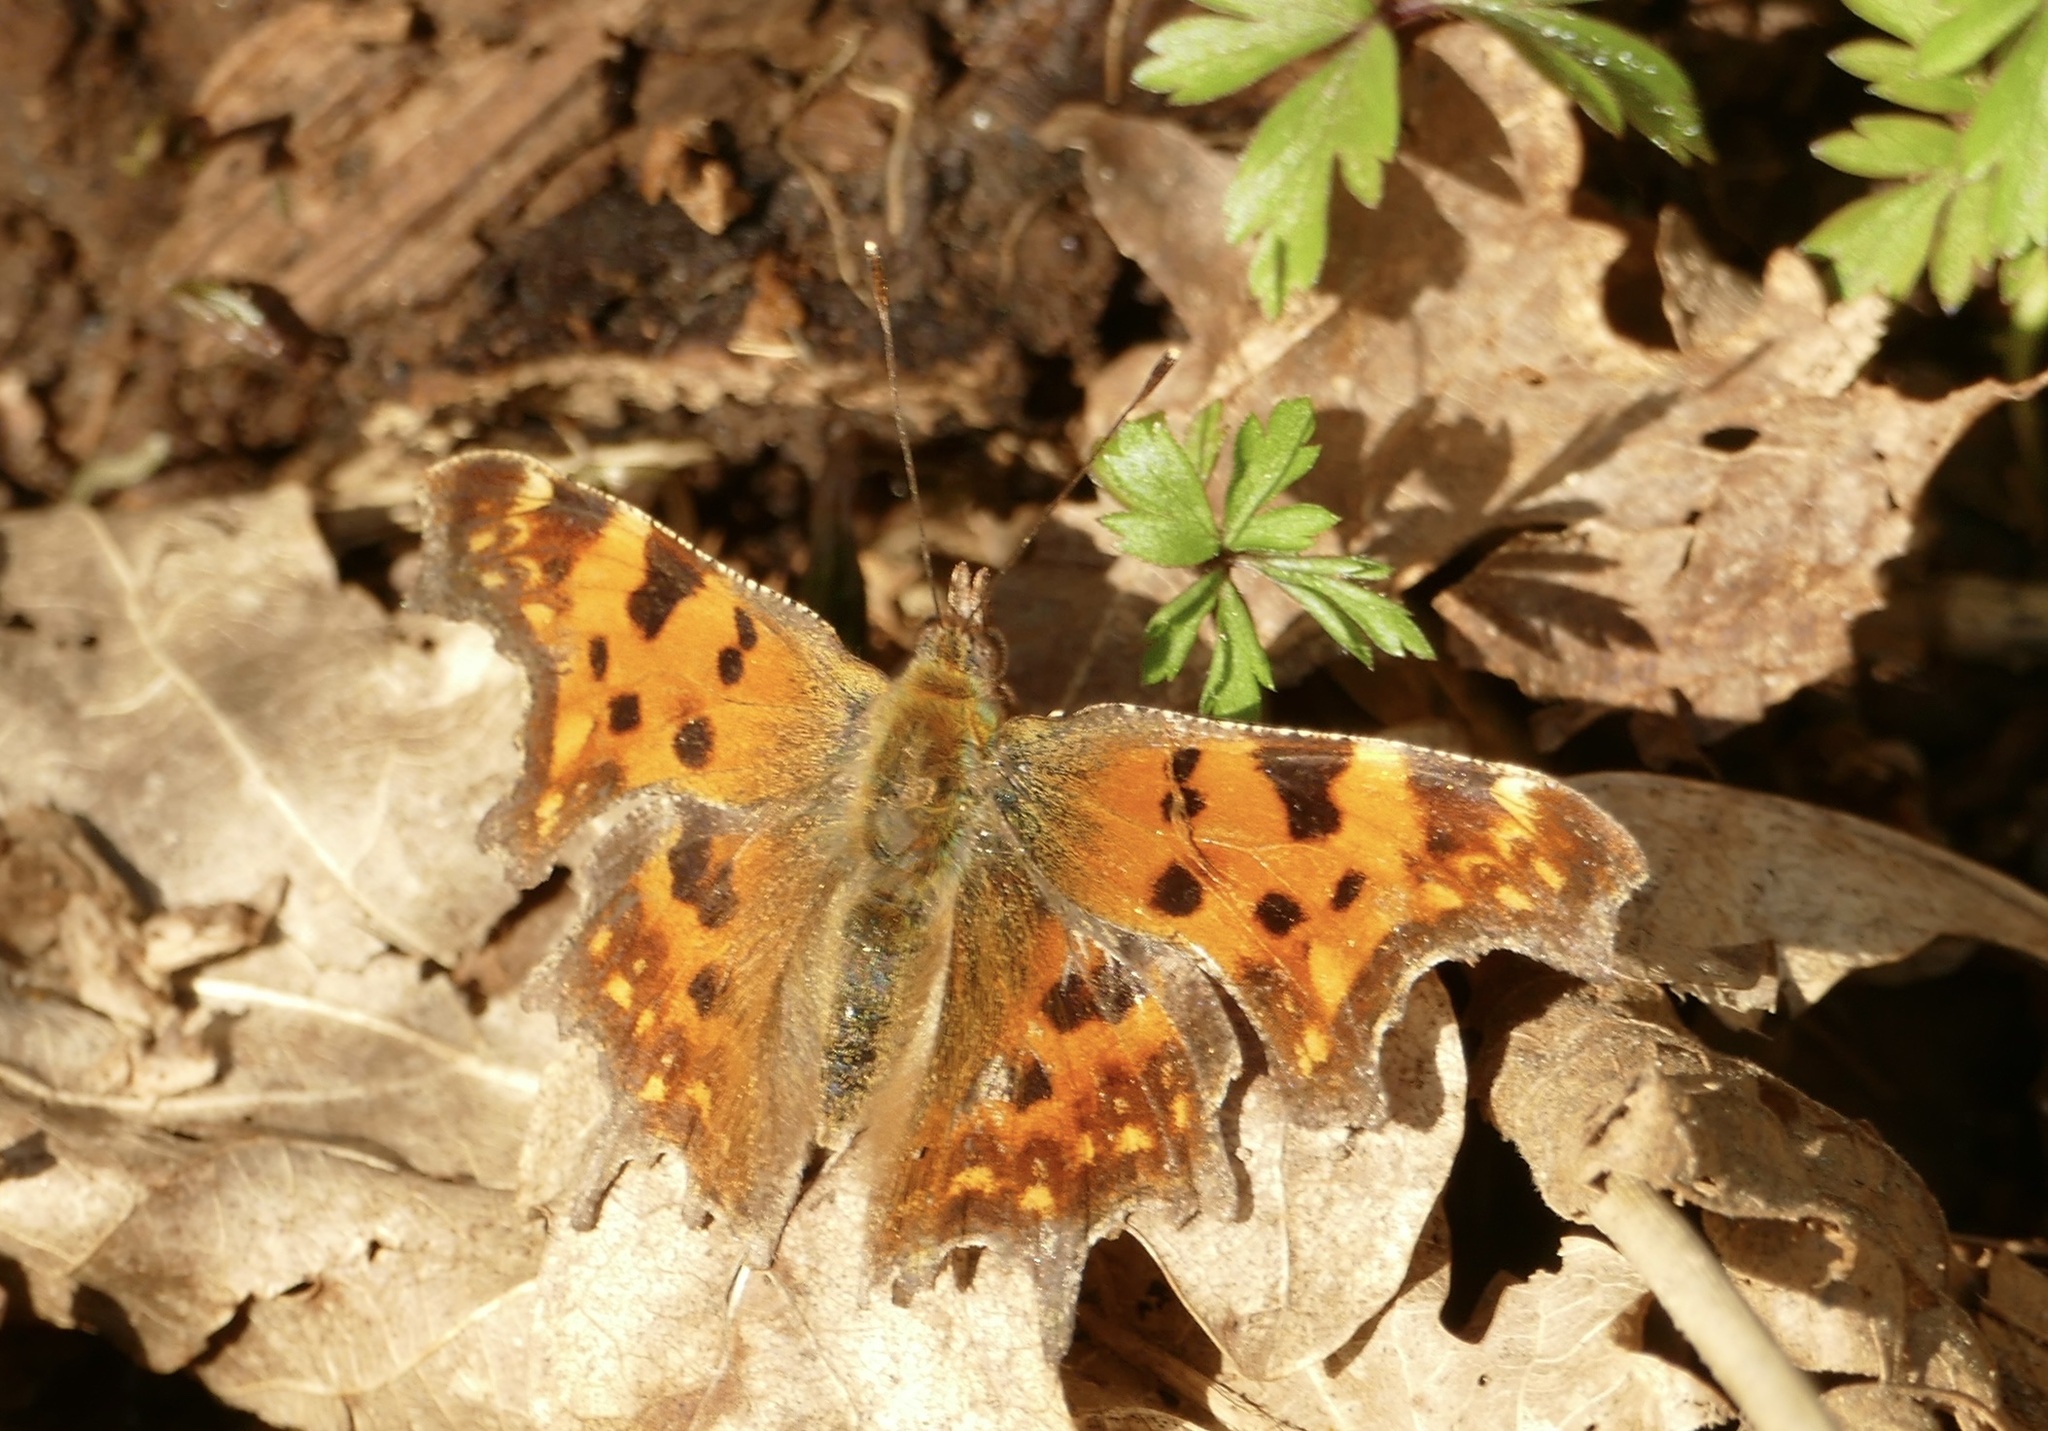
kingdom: Animalia
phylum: Arthropoda
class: Insecta
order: Lepidoptera
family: Nymphalidae
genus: Polygonia
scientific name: Polygonia c-album
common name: Comma
